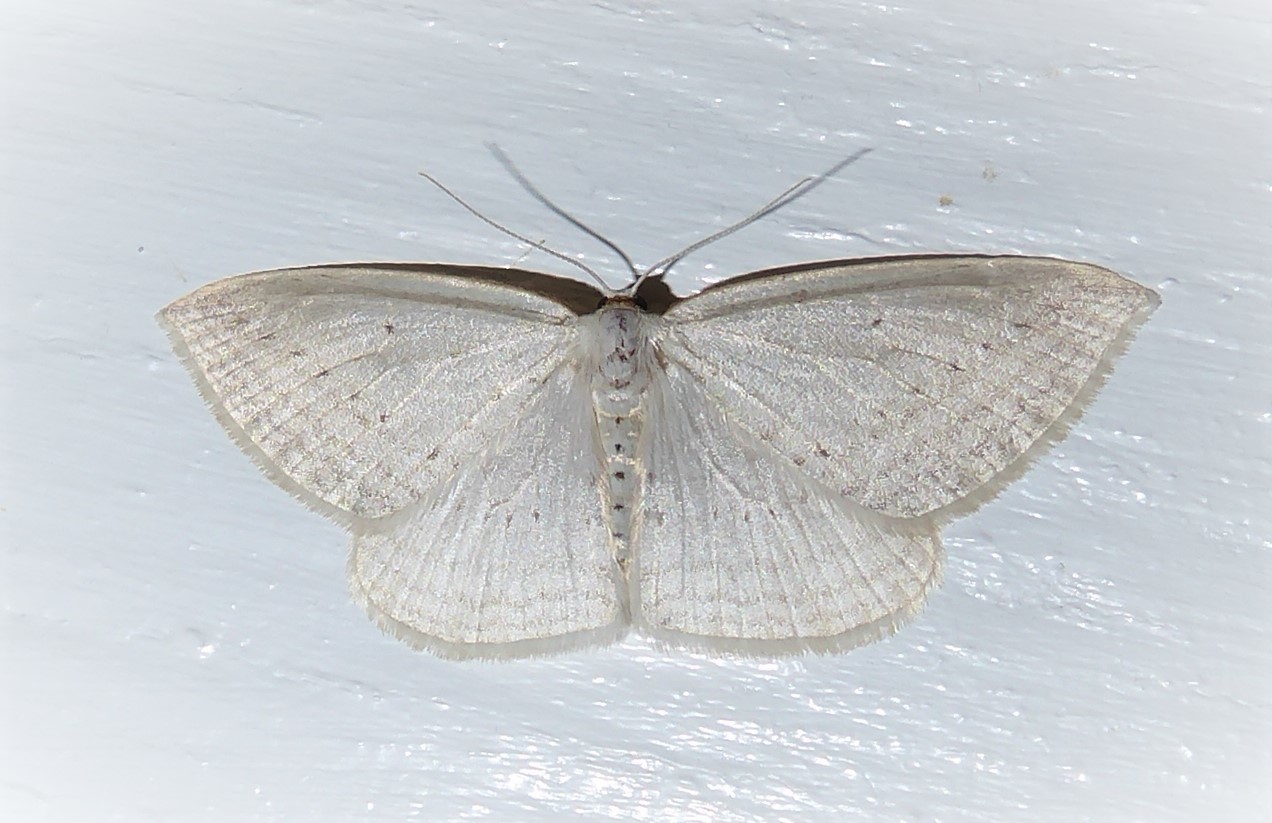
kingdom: Animalia
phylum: Arthropoda
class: Insecta
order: Lepidoptera
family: Geometridae
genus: Orthoclydon
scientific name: Orthoclydon praefectata
